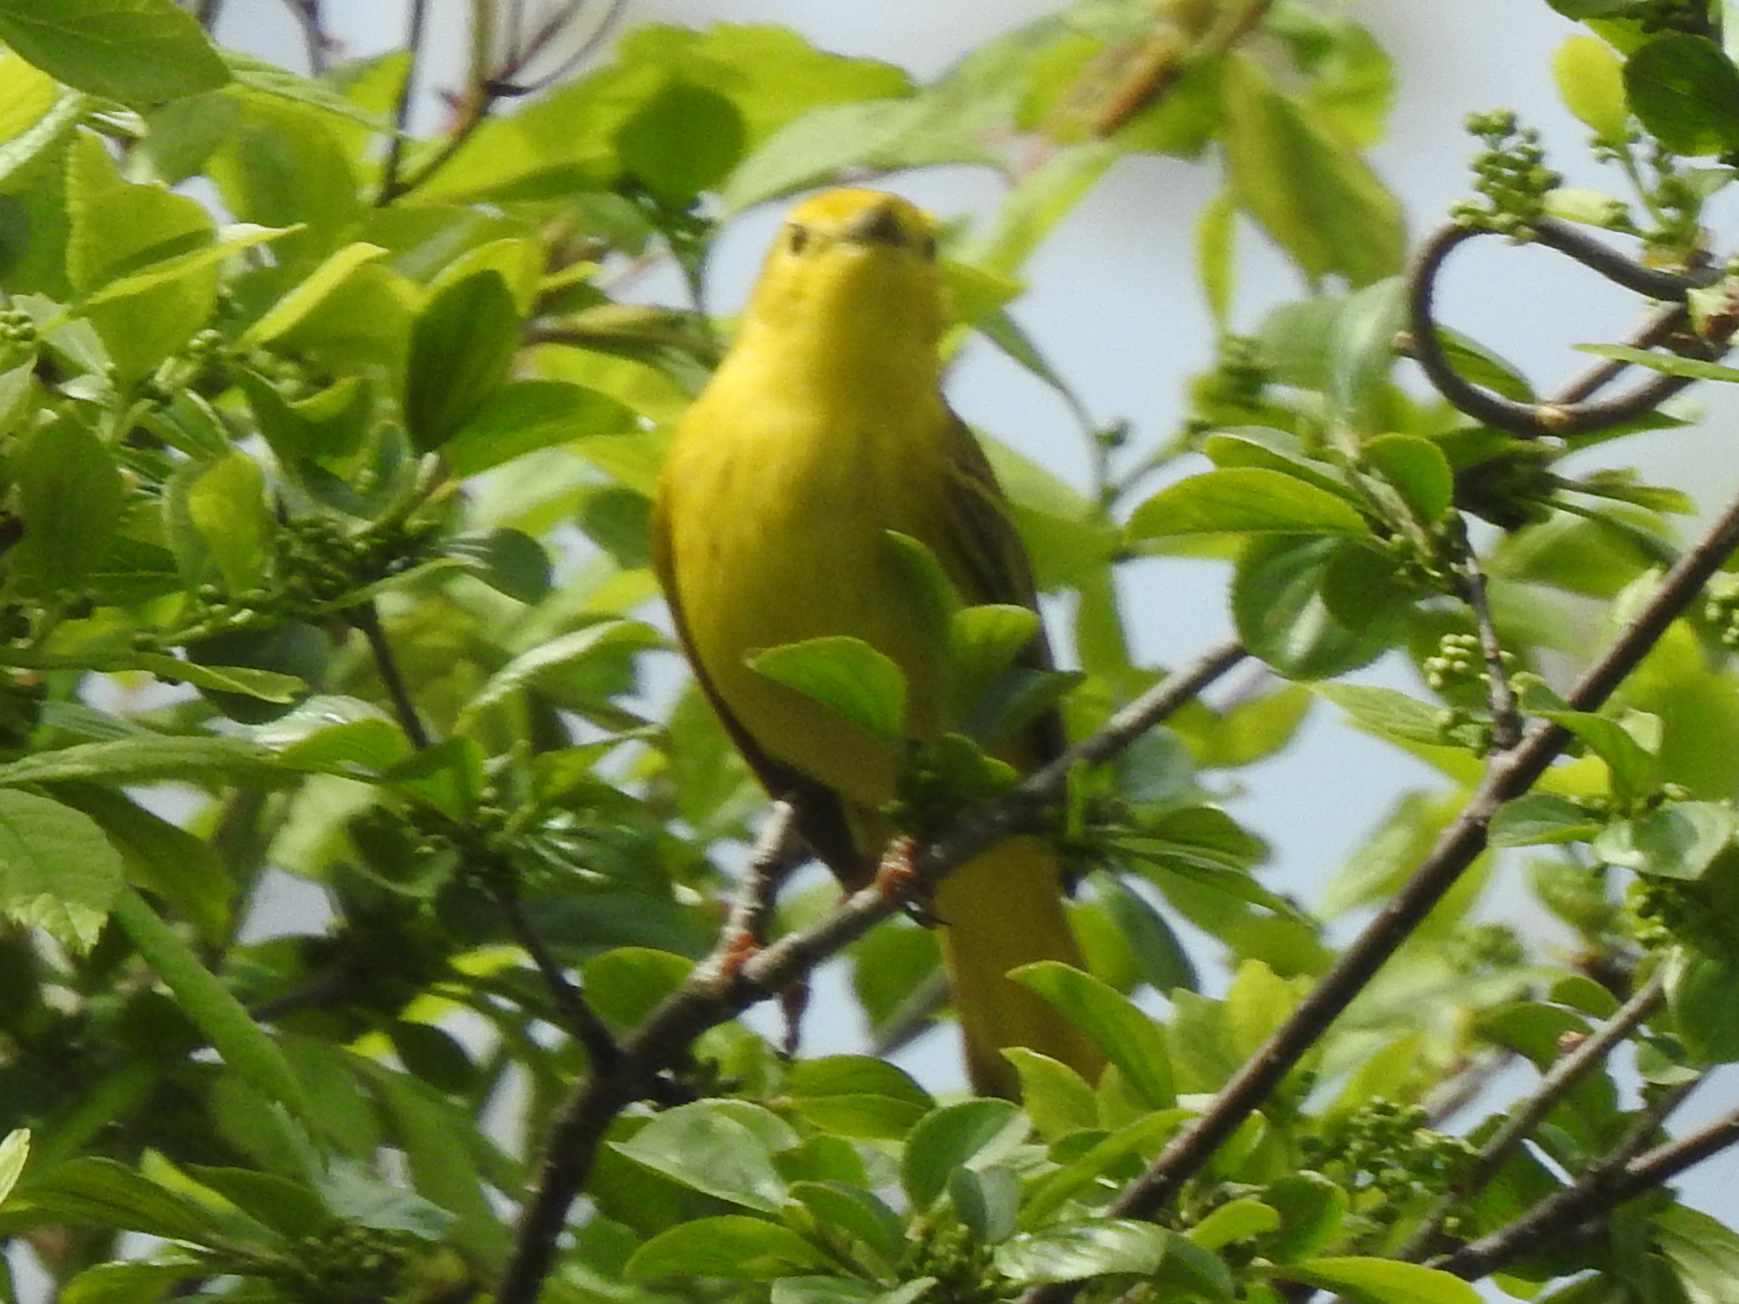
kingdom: Animalia
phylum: Chordata
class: Aves
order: Passeriformes
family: Parulidae
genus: Setophaga
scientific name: Setophaga petechia
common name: Yellow warbler
